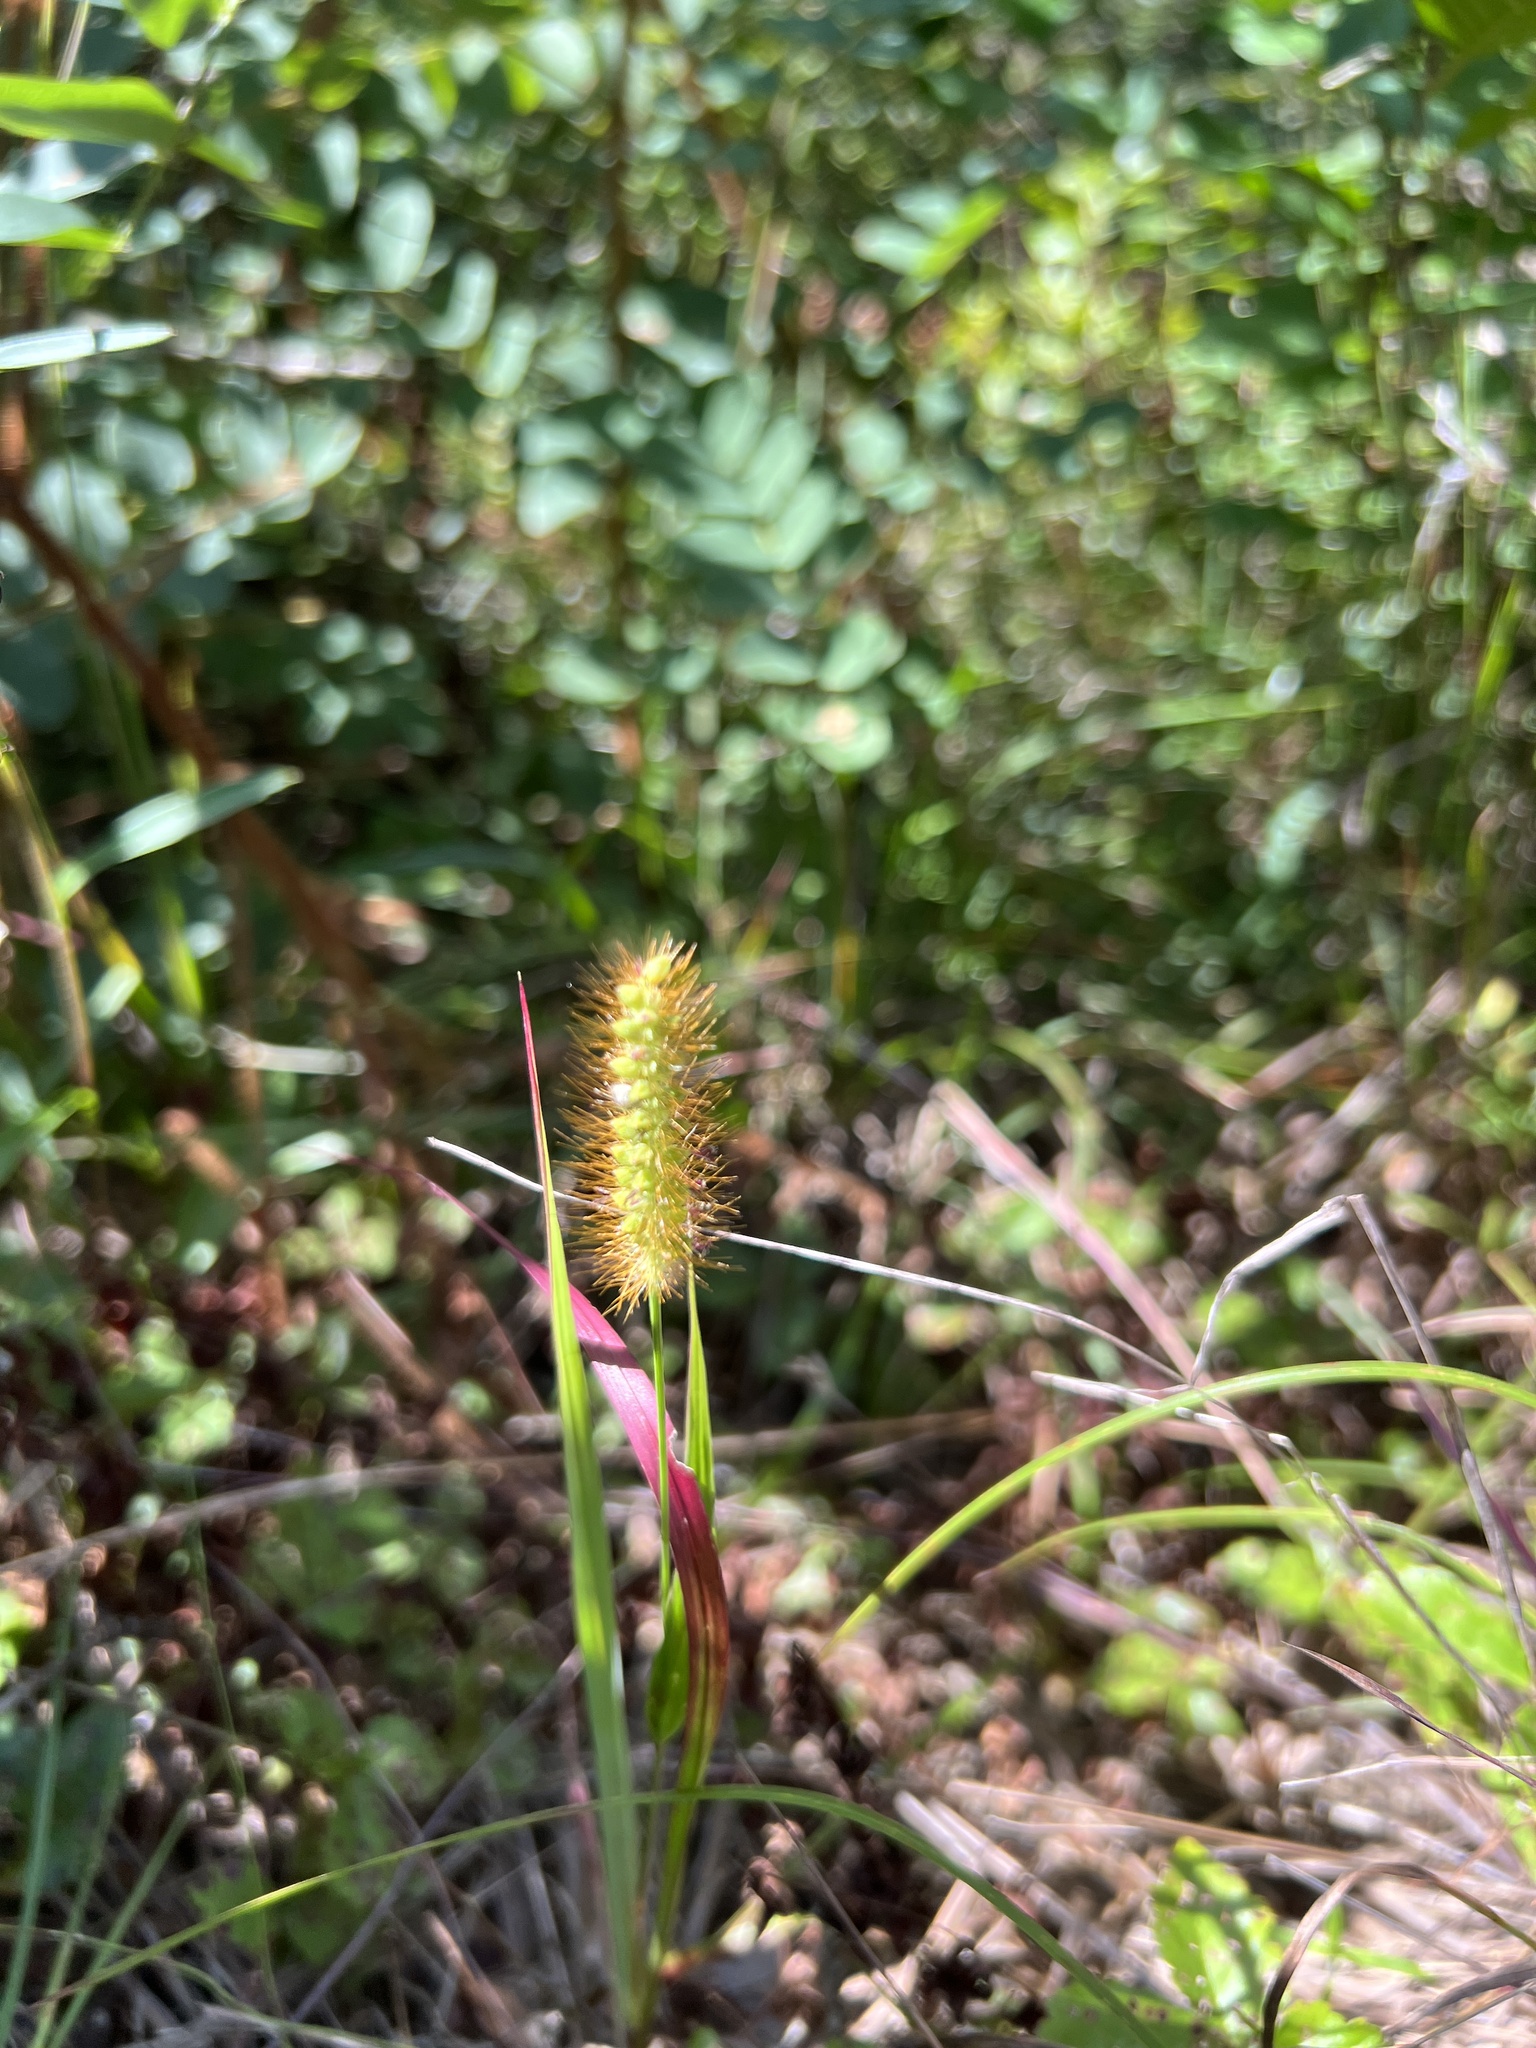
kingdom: Plantae
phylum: Tracheophyta
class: Liliopsida
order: Poales
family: Poaceae
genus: Setaria
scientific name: Setaria pumila
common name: Yellow bristle-grass
